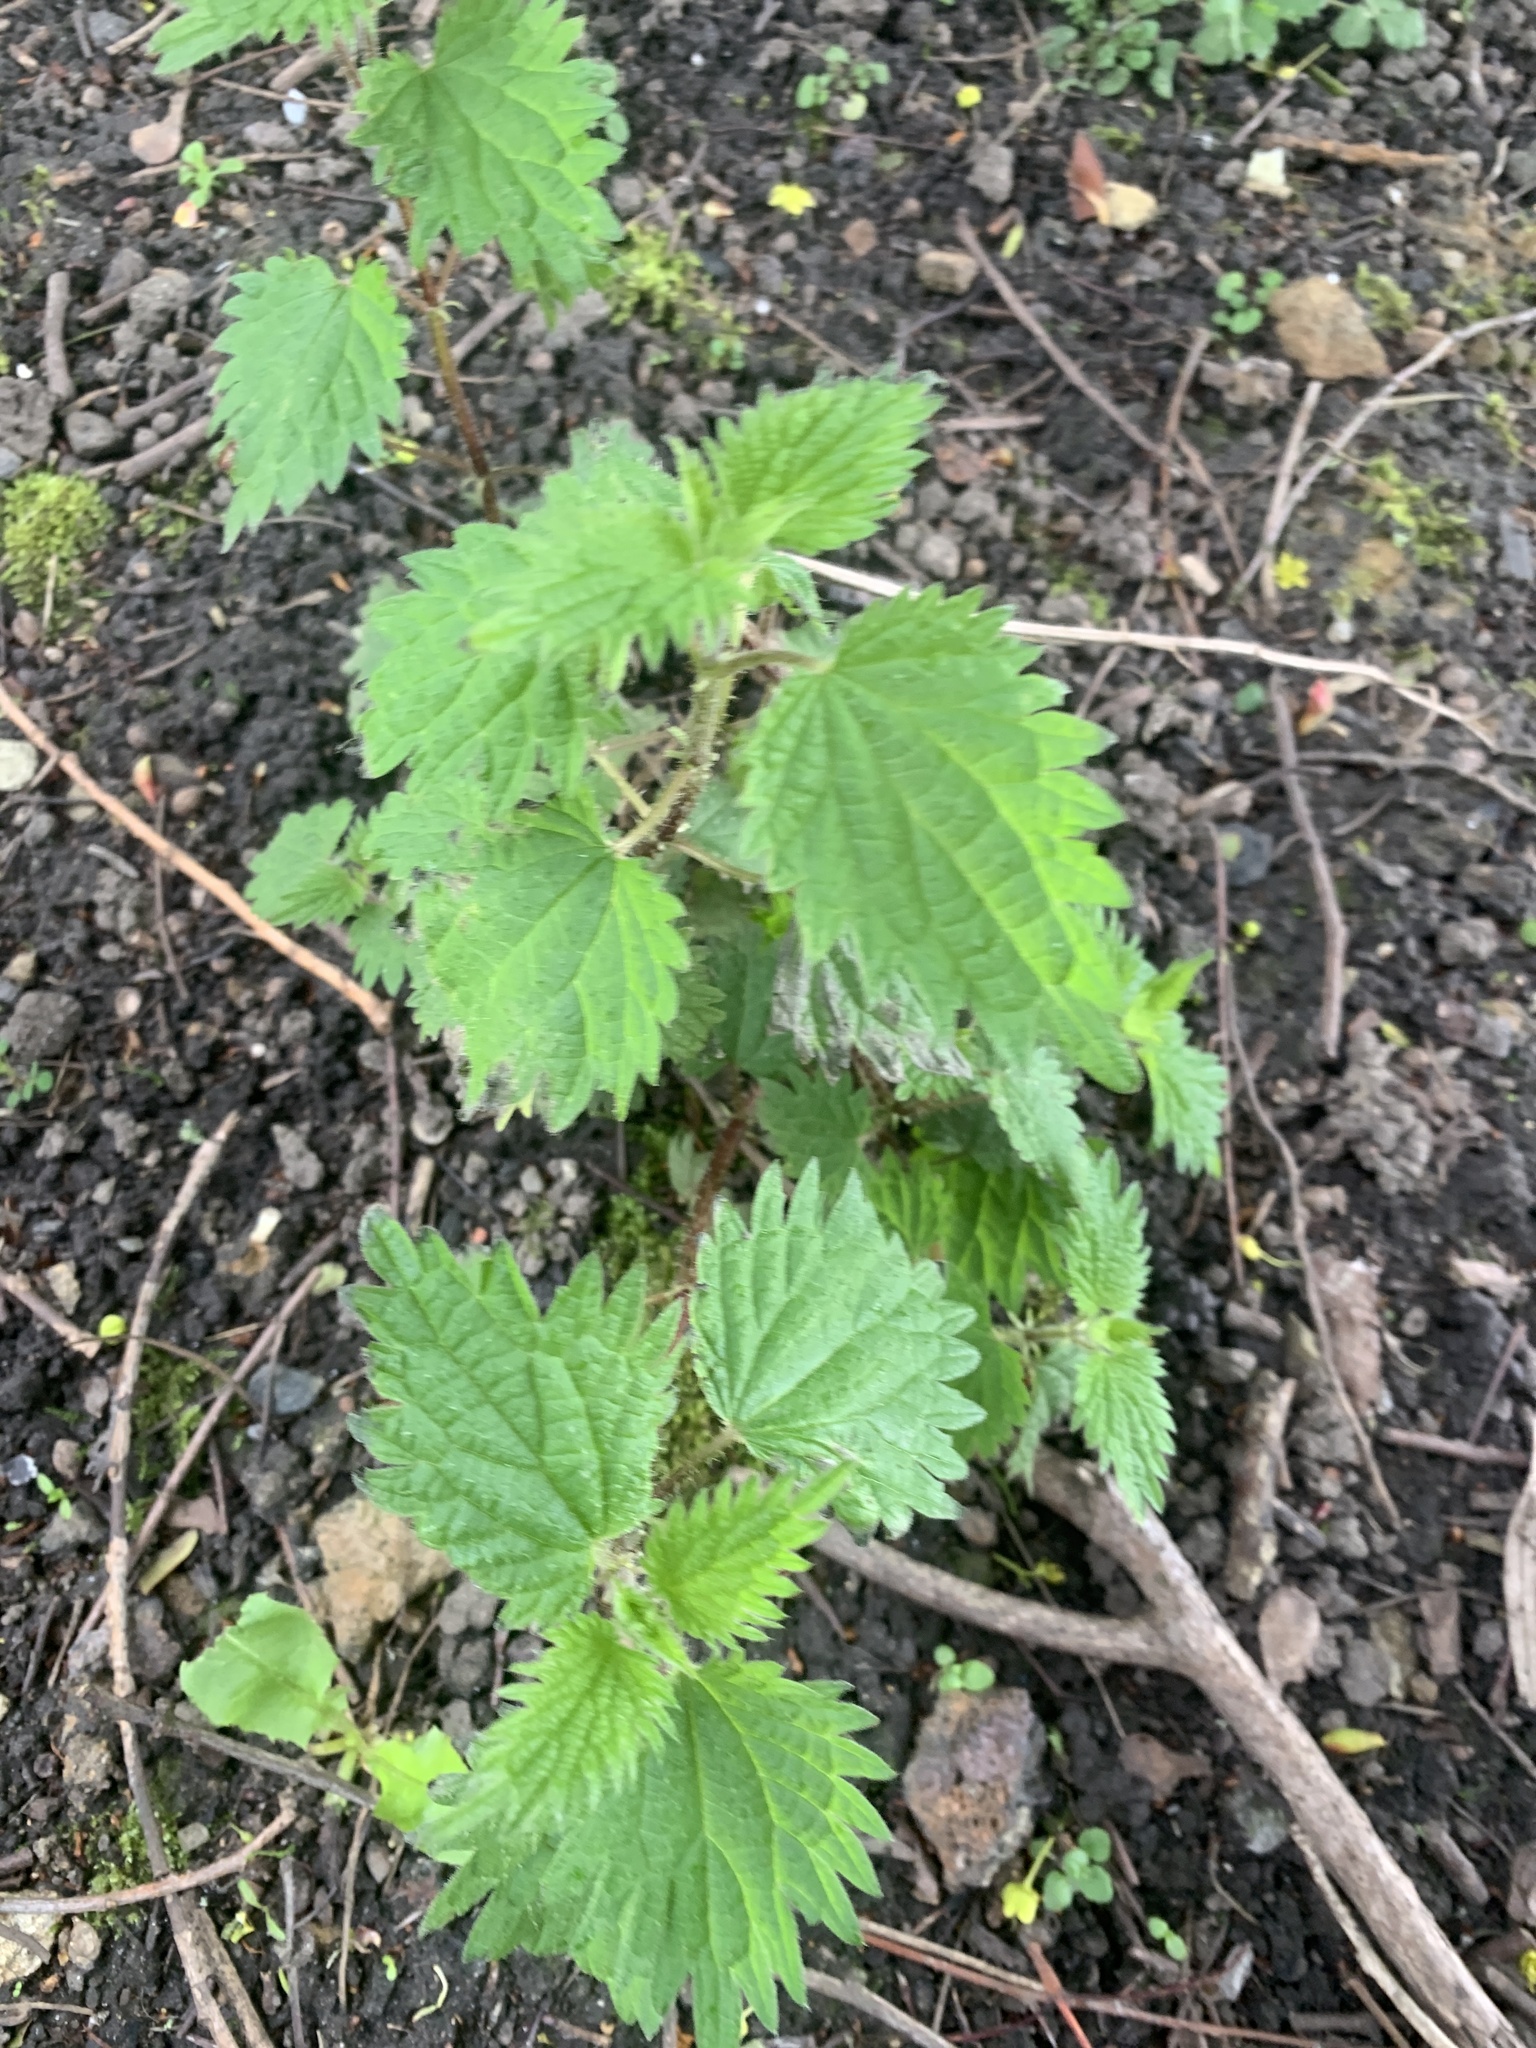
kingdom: Plantae
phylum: Tracheophyta
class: Magnoliopsida
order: Rosales
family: Urticaceae
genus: Urtica
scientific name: Urtica dioica
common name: Common nettle
